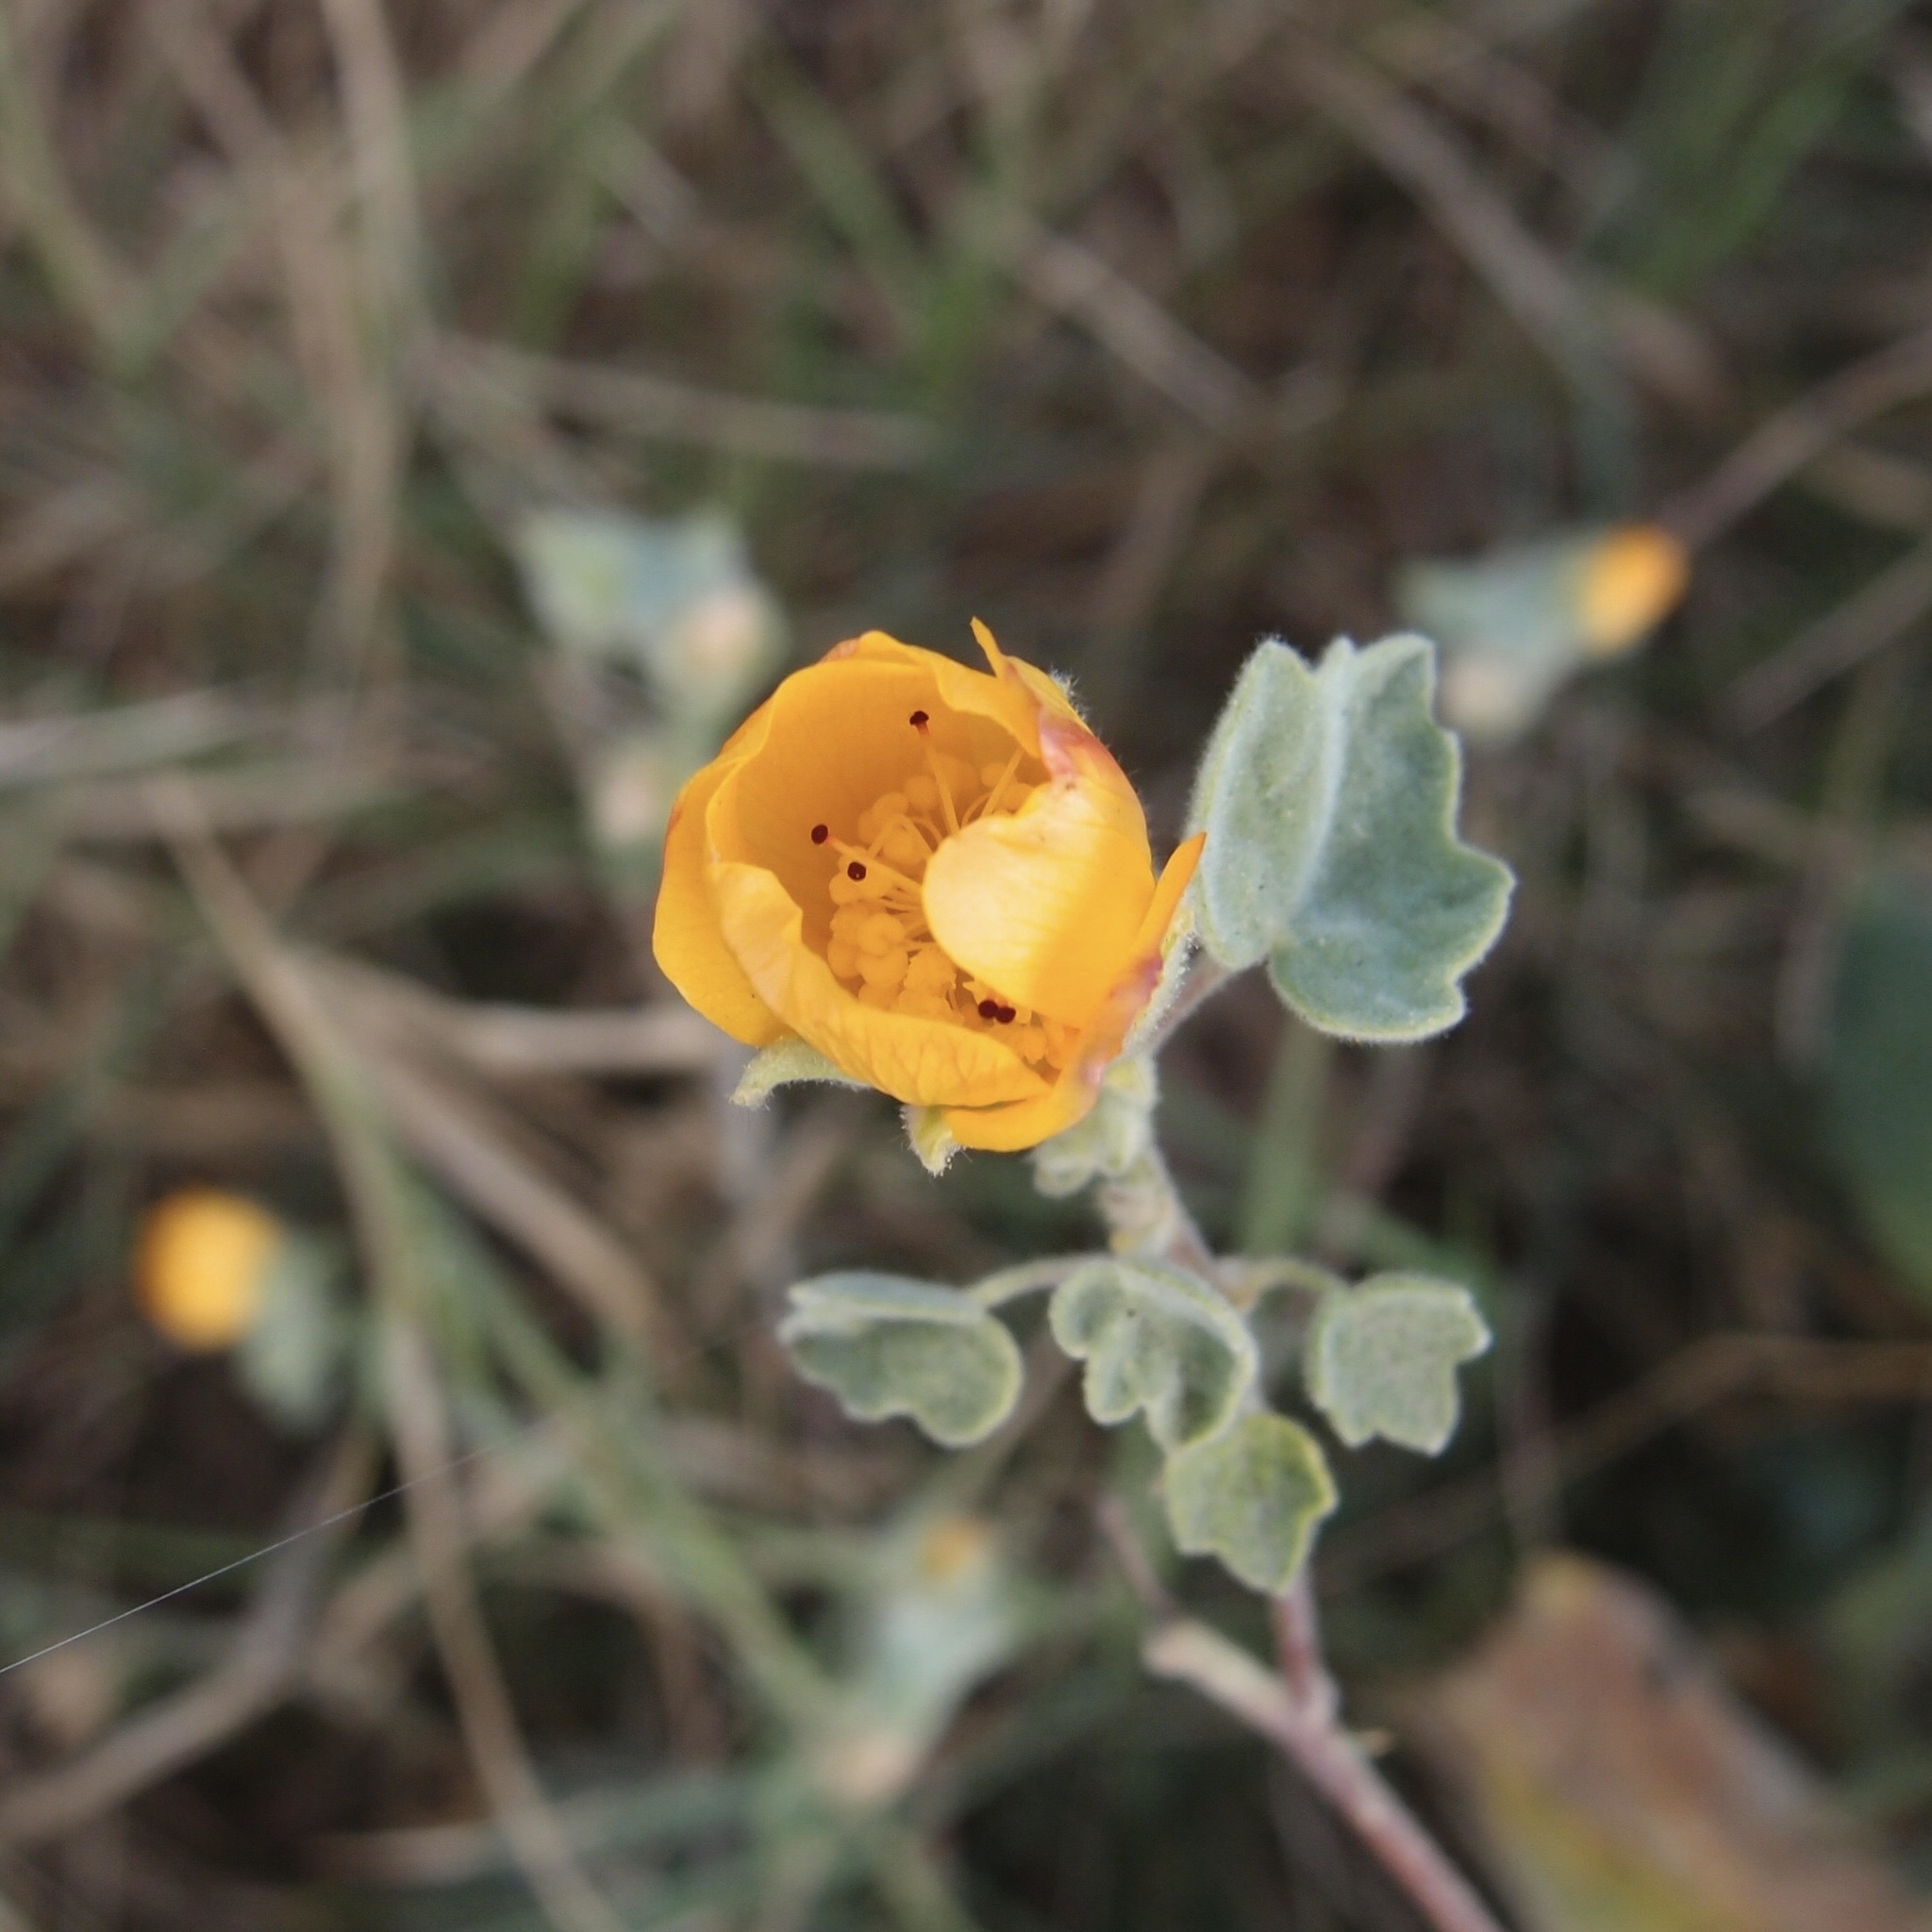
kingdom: Plantae
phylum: Tracheophyta
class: Magnoliopsida
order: Malvales
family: Malvaceae
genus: Abutilon
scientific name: Abutilon palmeri
